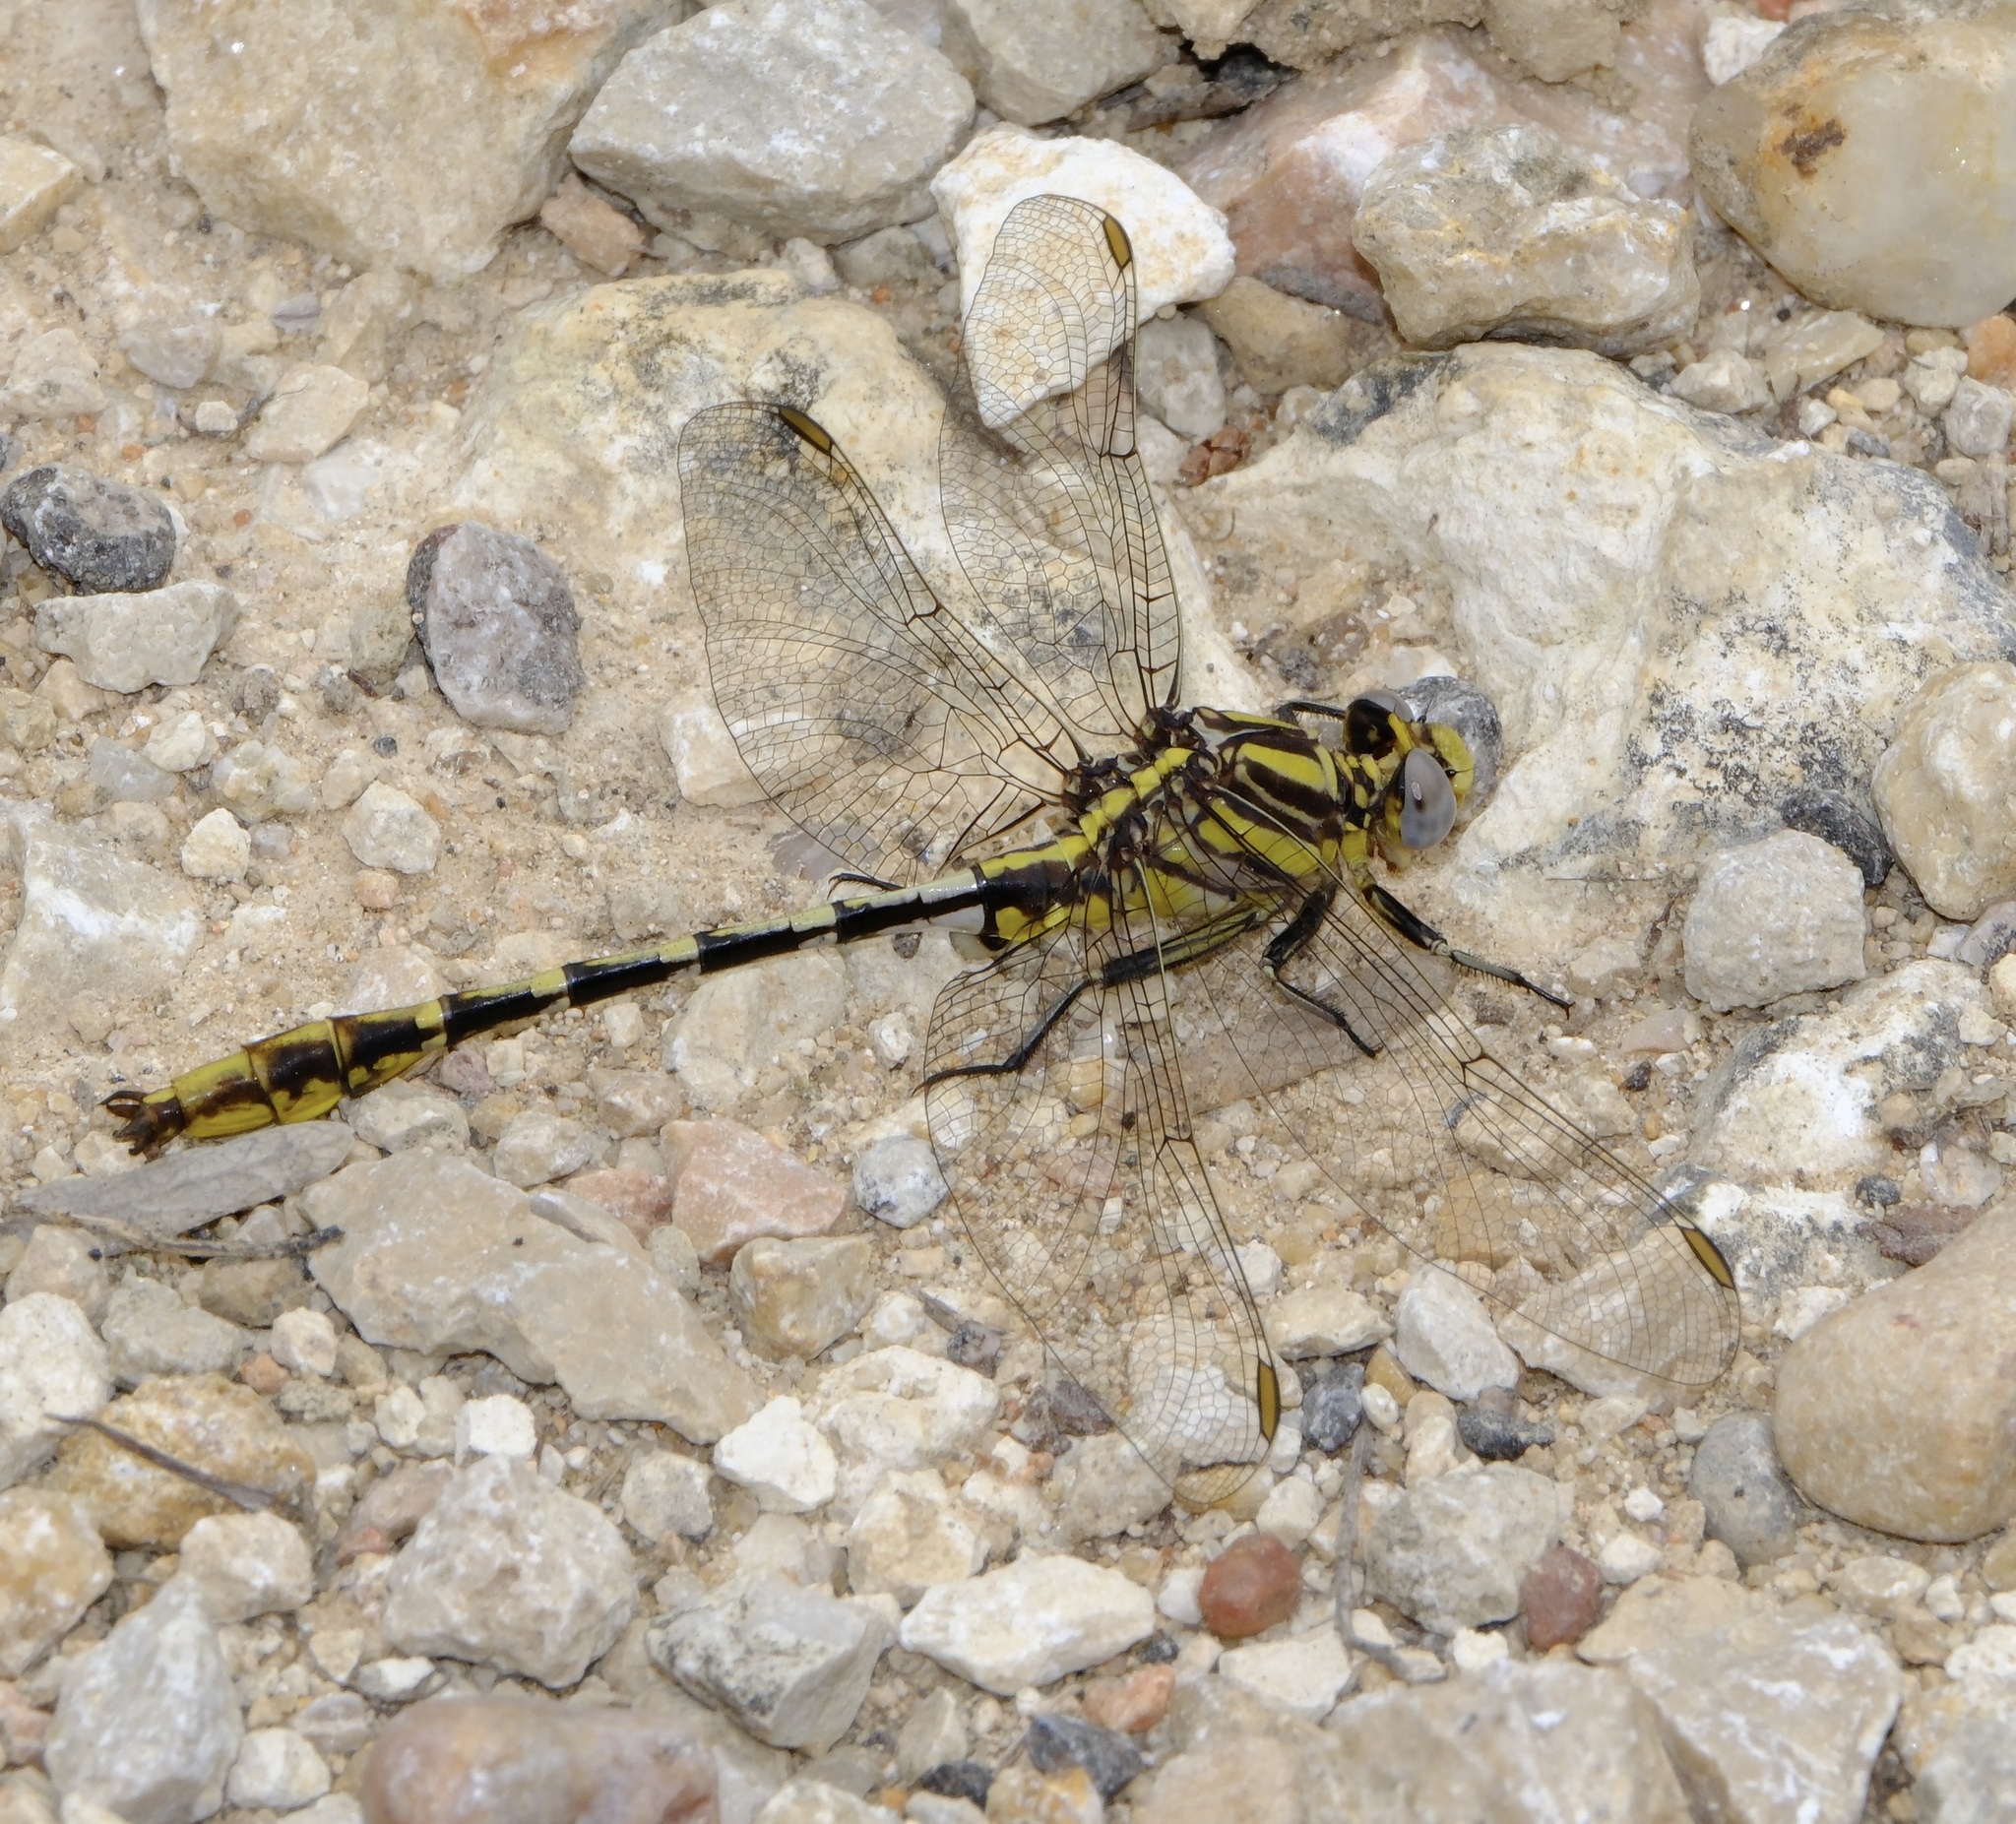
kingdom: Animalia
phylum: Arthropoda
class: Insecta
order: Odonata
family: Gomphidae
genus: Phanogomphus
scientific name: Phanogomphus militaris
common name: Sulphur-tipped clubtail
